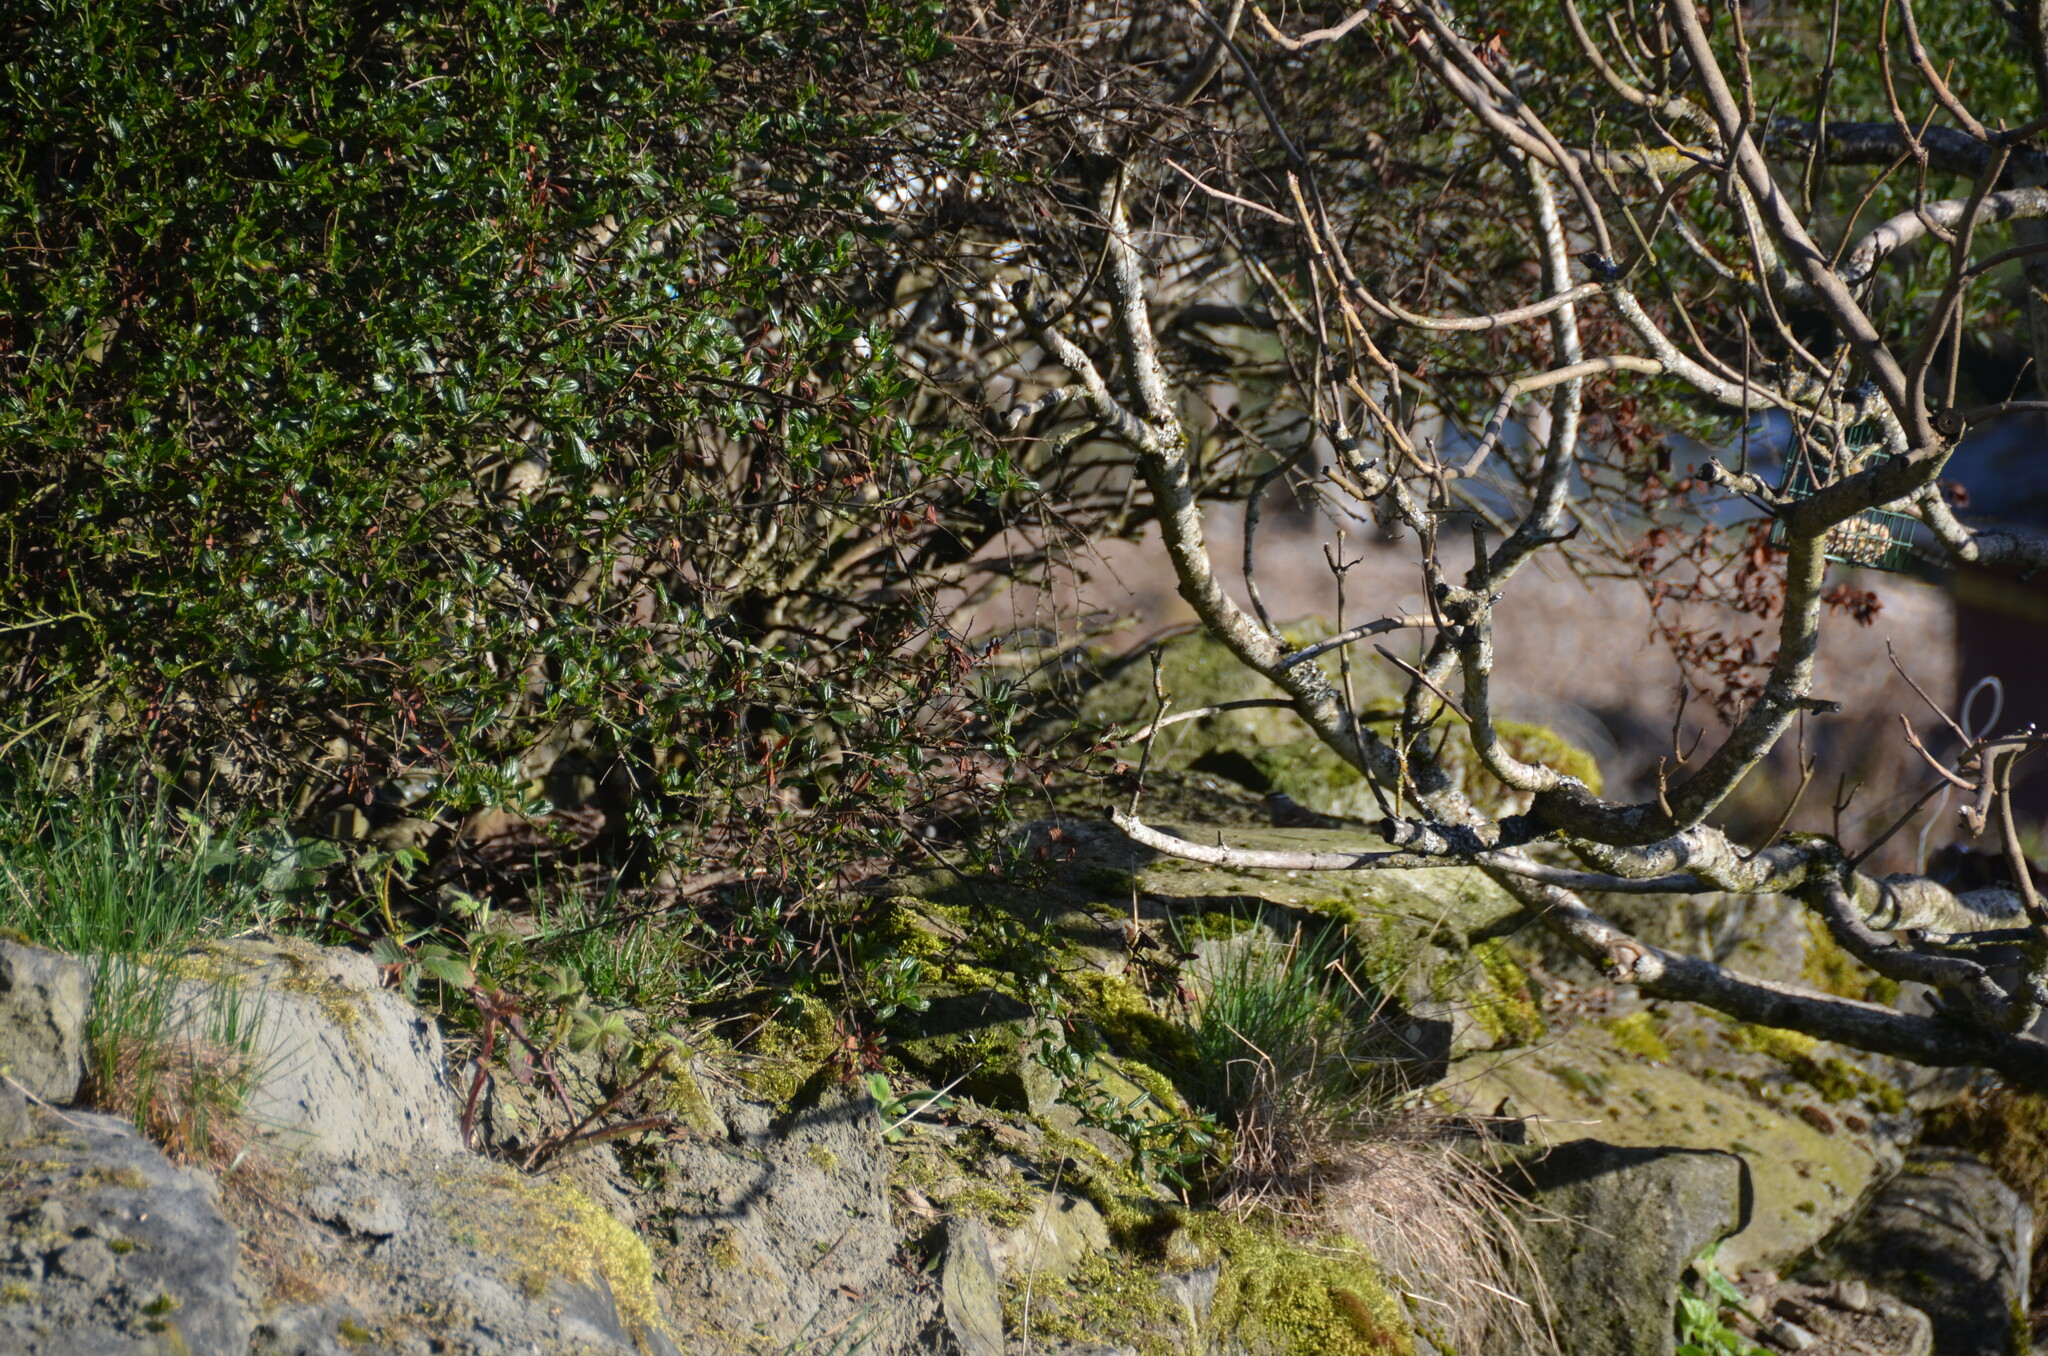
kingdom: Animalia
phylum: Chordata
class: Aves
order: Passeriformes
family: Passerellidae
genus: Zonotrichia
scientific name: Zonotrichia leucophrys
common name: White-crowned sparrow
